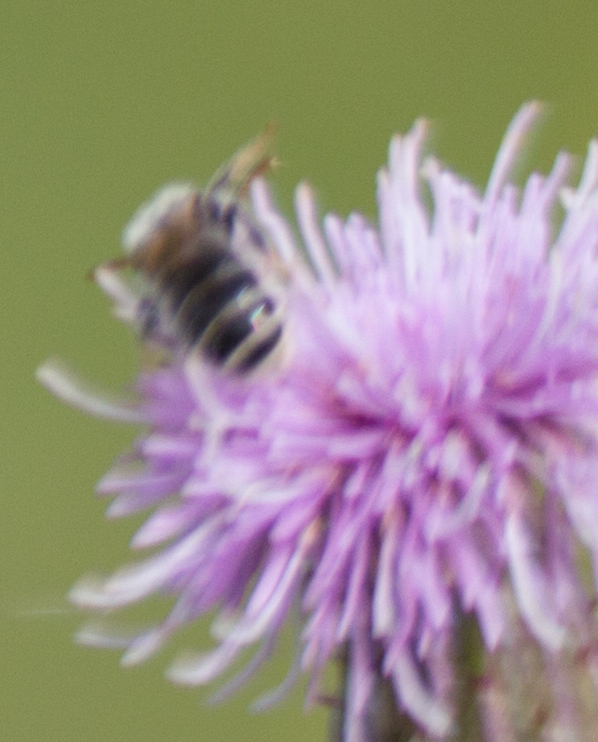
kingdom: Animalia
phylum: Arthropoda
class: Insecta
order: Hymenoptera
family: Halictidae
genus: Rophites
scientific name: Rophites canus
